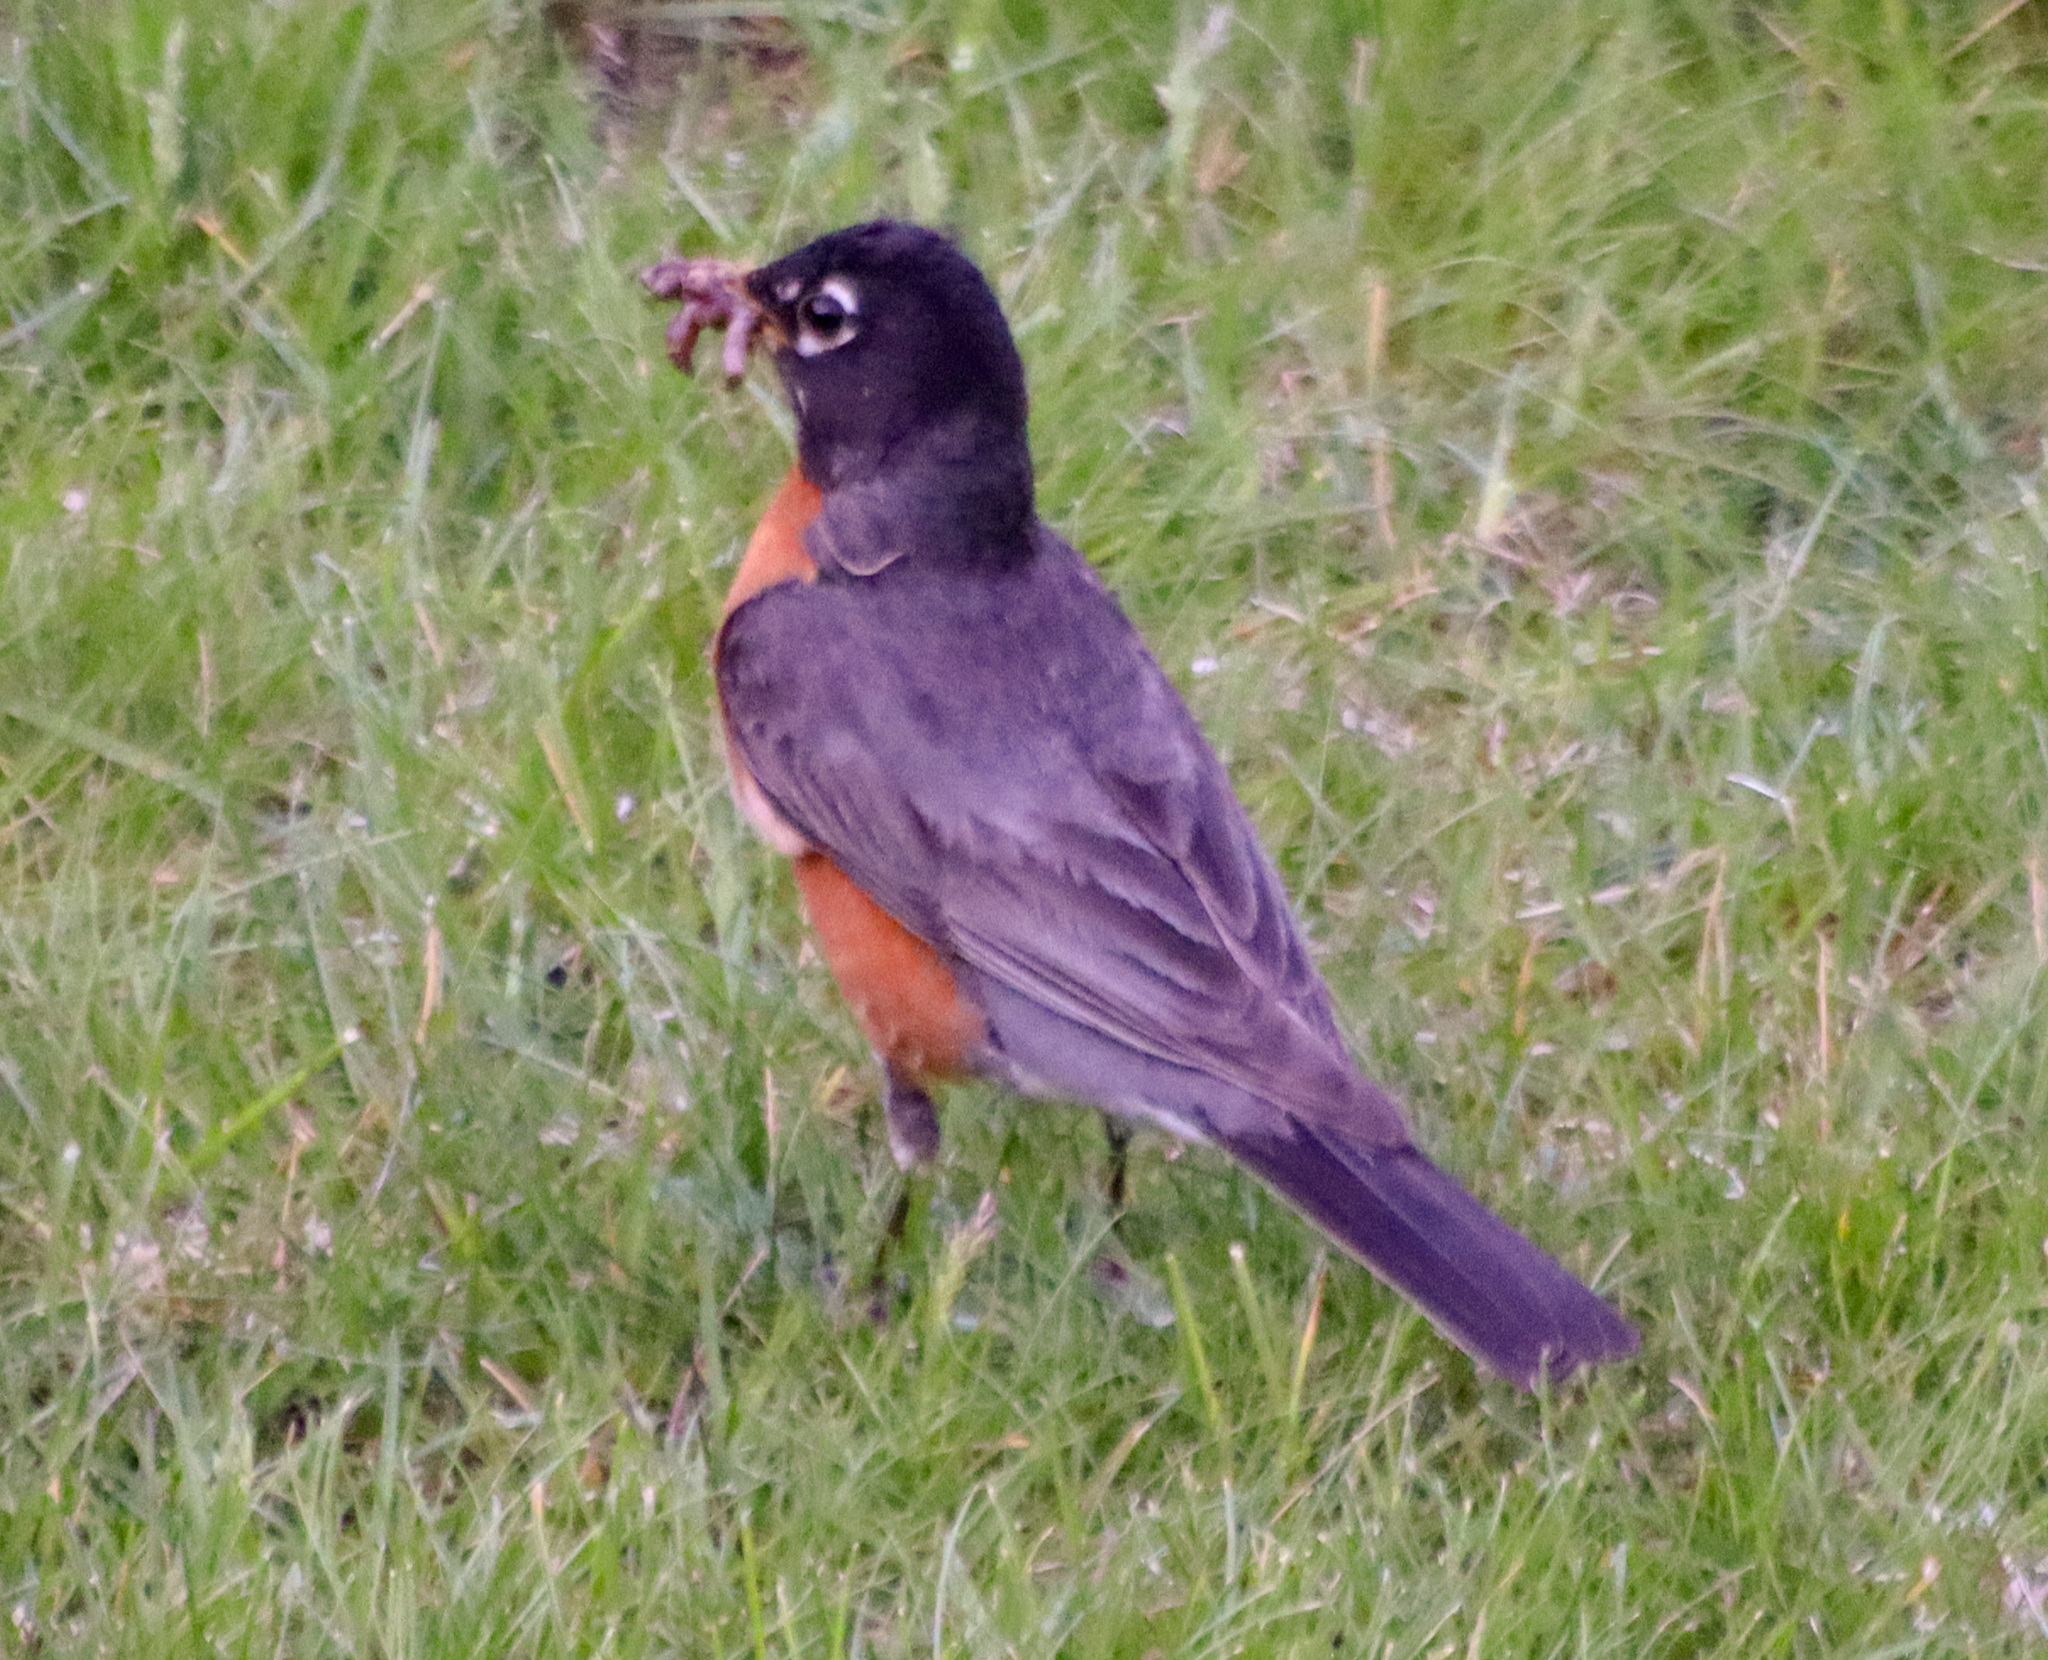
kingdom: Animalia
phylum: Chordata
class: Aves
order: Passeriformes
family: Turdidae
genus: Turdus
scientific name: Turdus migratorius
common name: American robin
